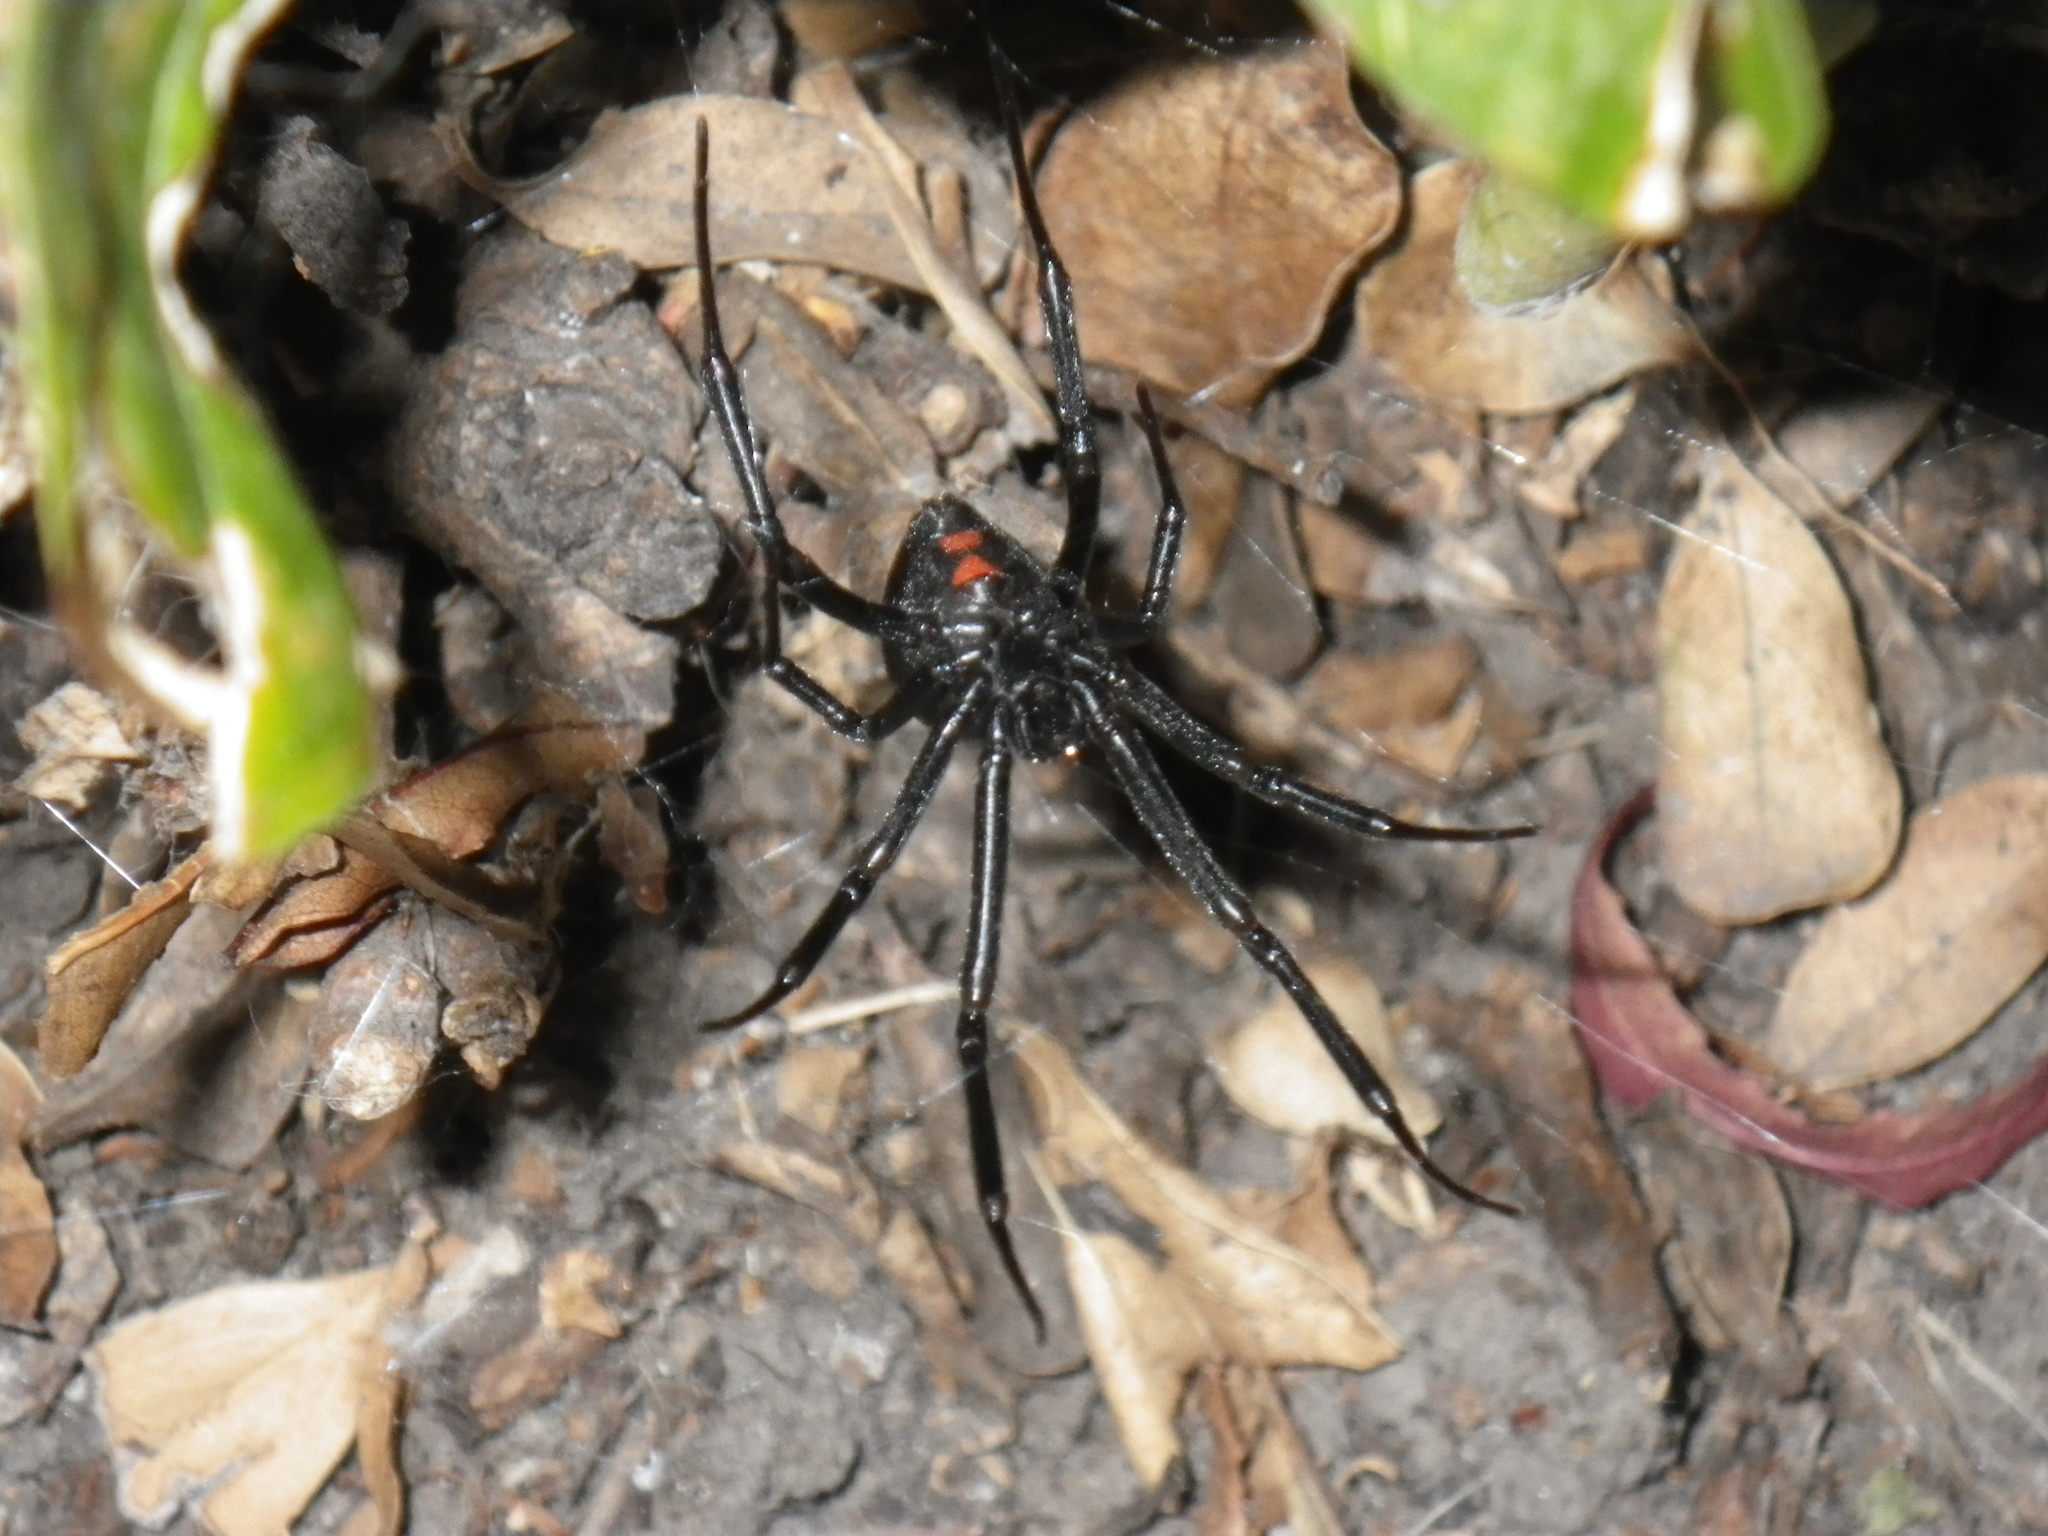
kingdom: Animalia
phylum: Arthropoda
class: Arachnida
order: Araneae
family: Theridiidae
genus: Latrodectus
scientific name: Latrodectus hesperus
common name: Western black widow
